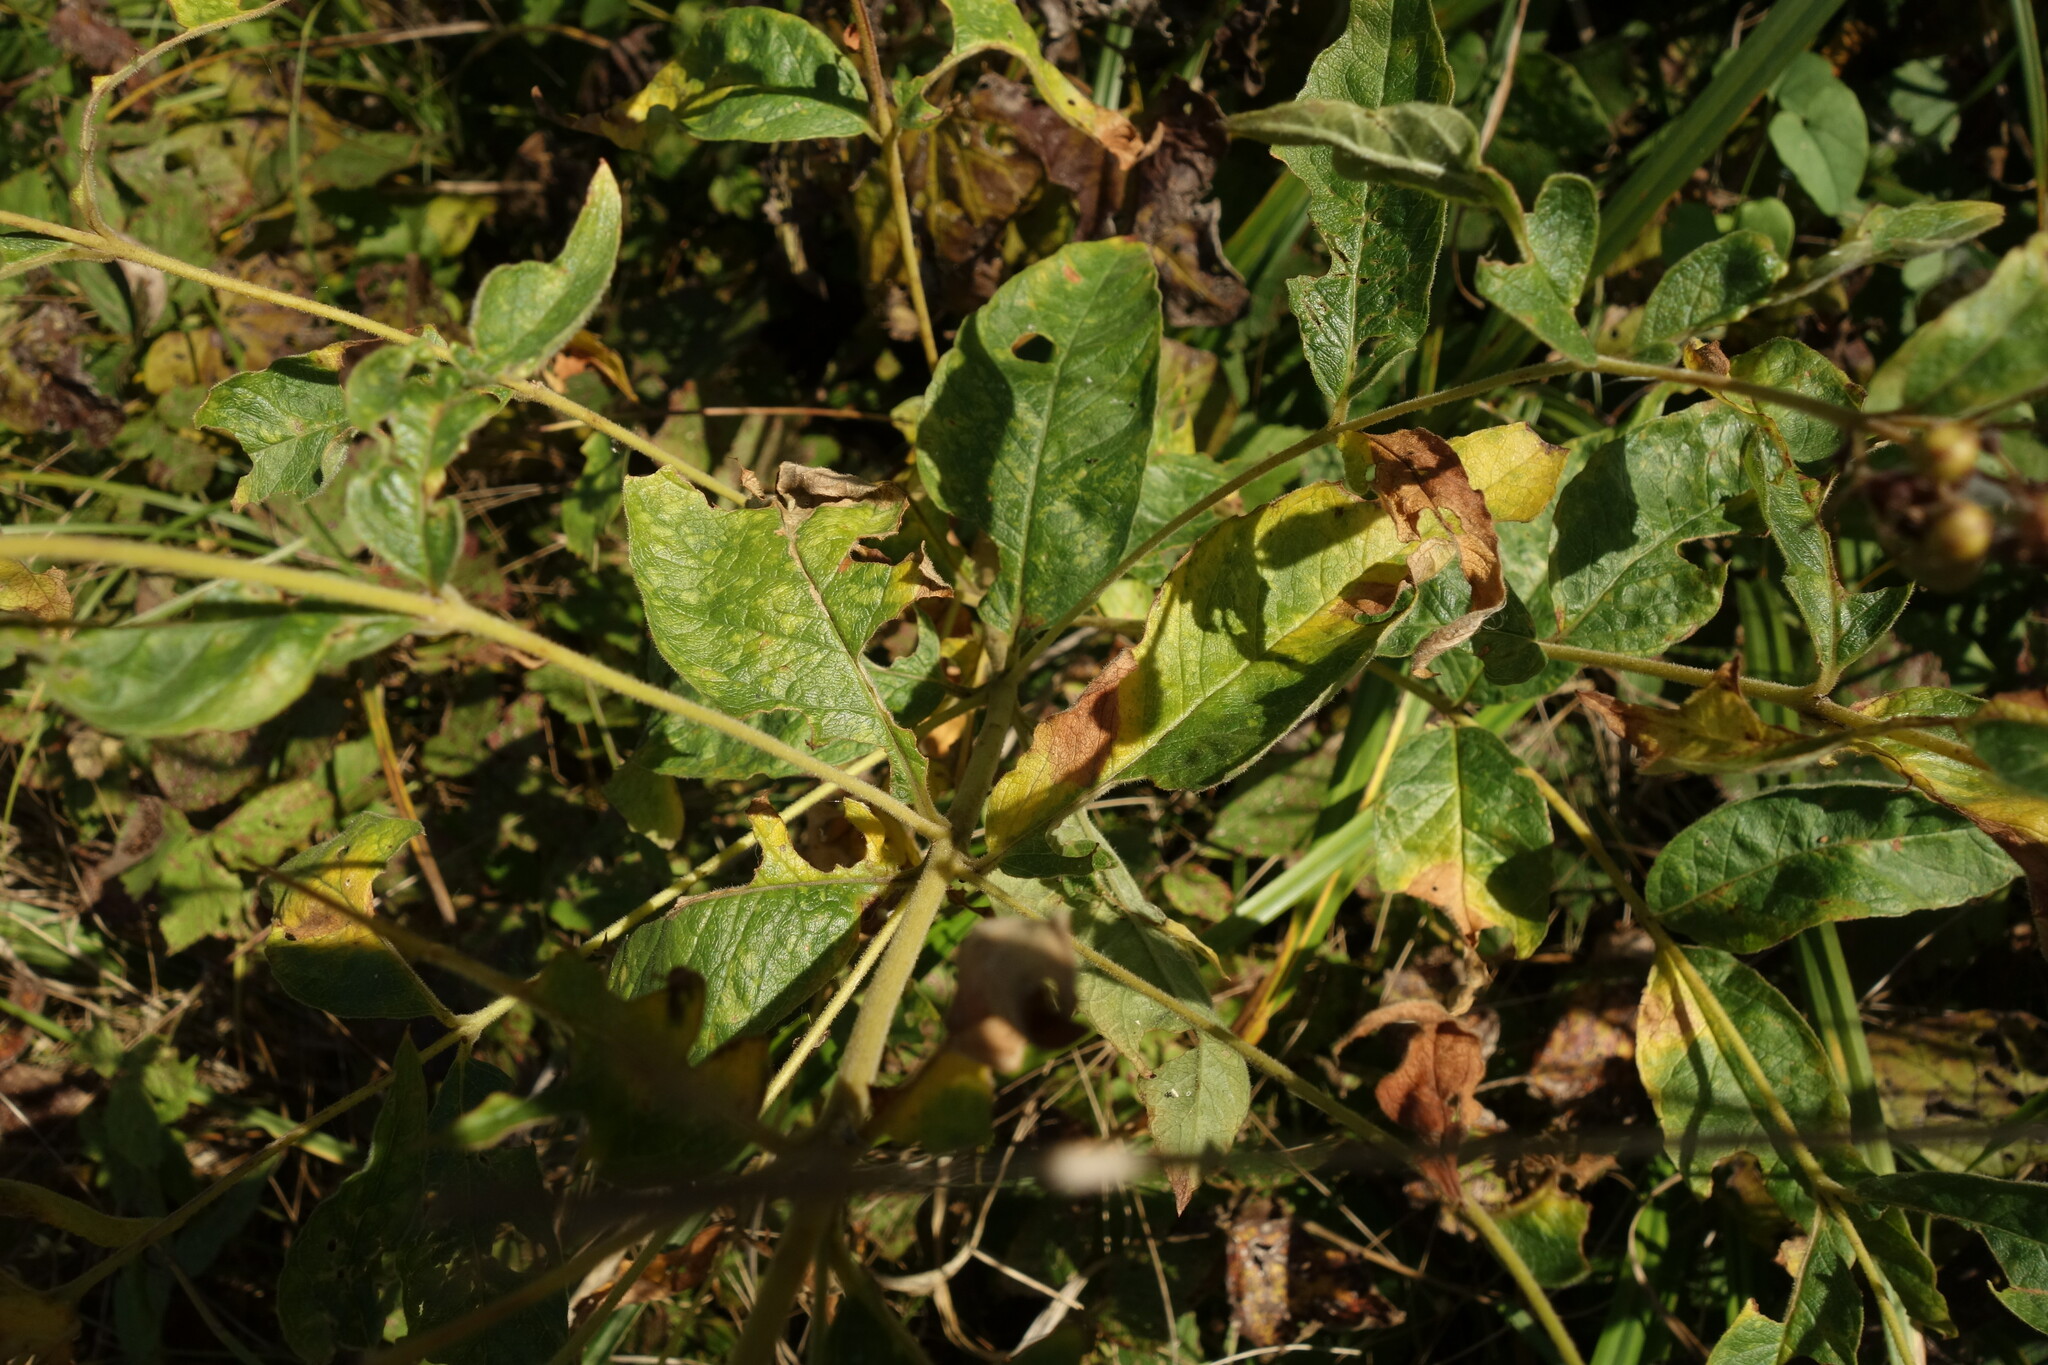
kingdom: Plantae
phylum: Tracheophyta
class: Magnoliopsida
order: Ericales
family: Primulaceae
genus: Lysimachia
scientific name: Lysimachia vulgaris
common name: Yellow loosestrife
